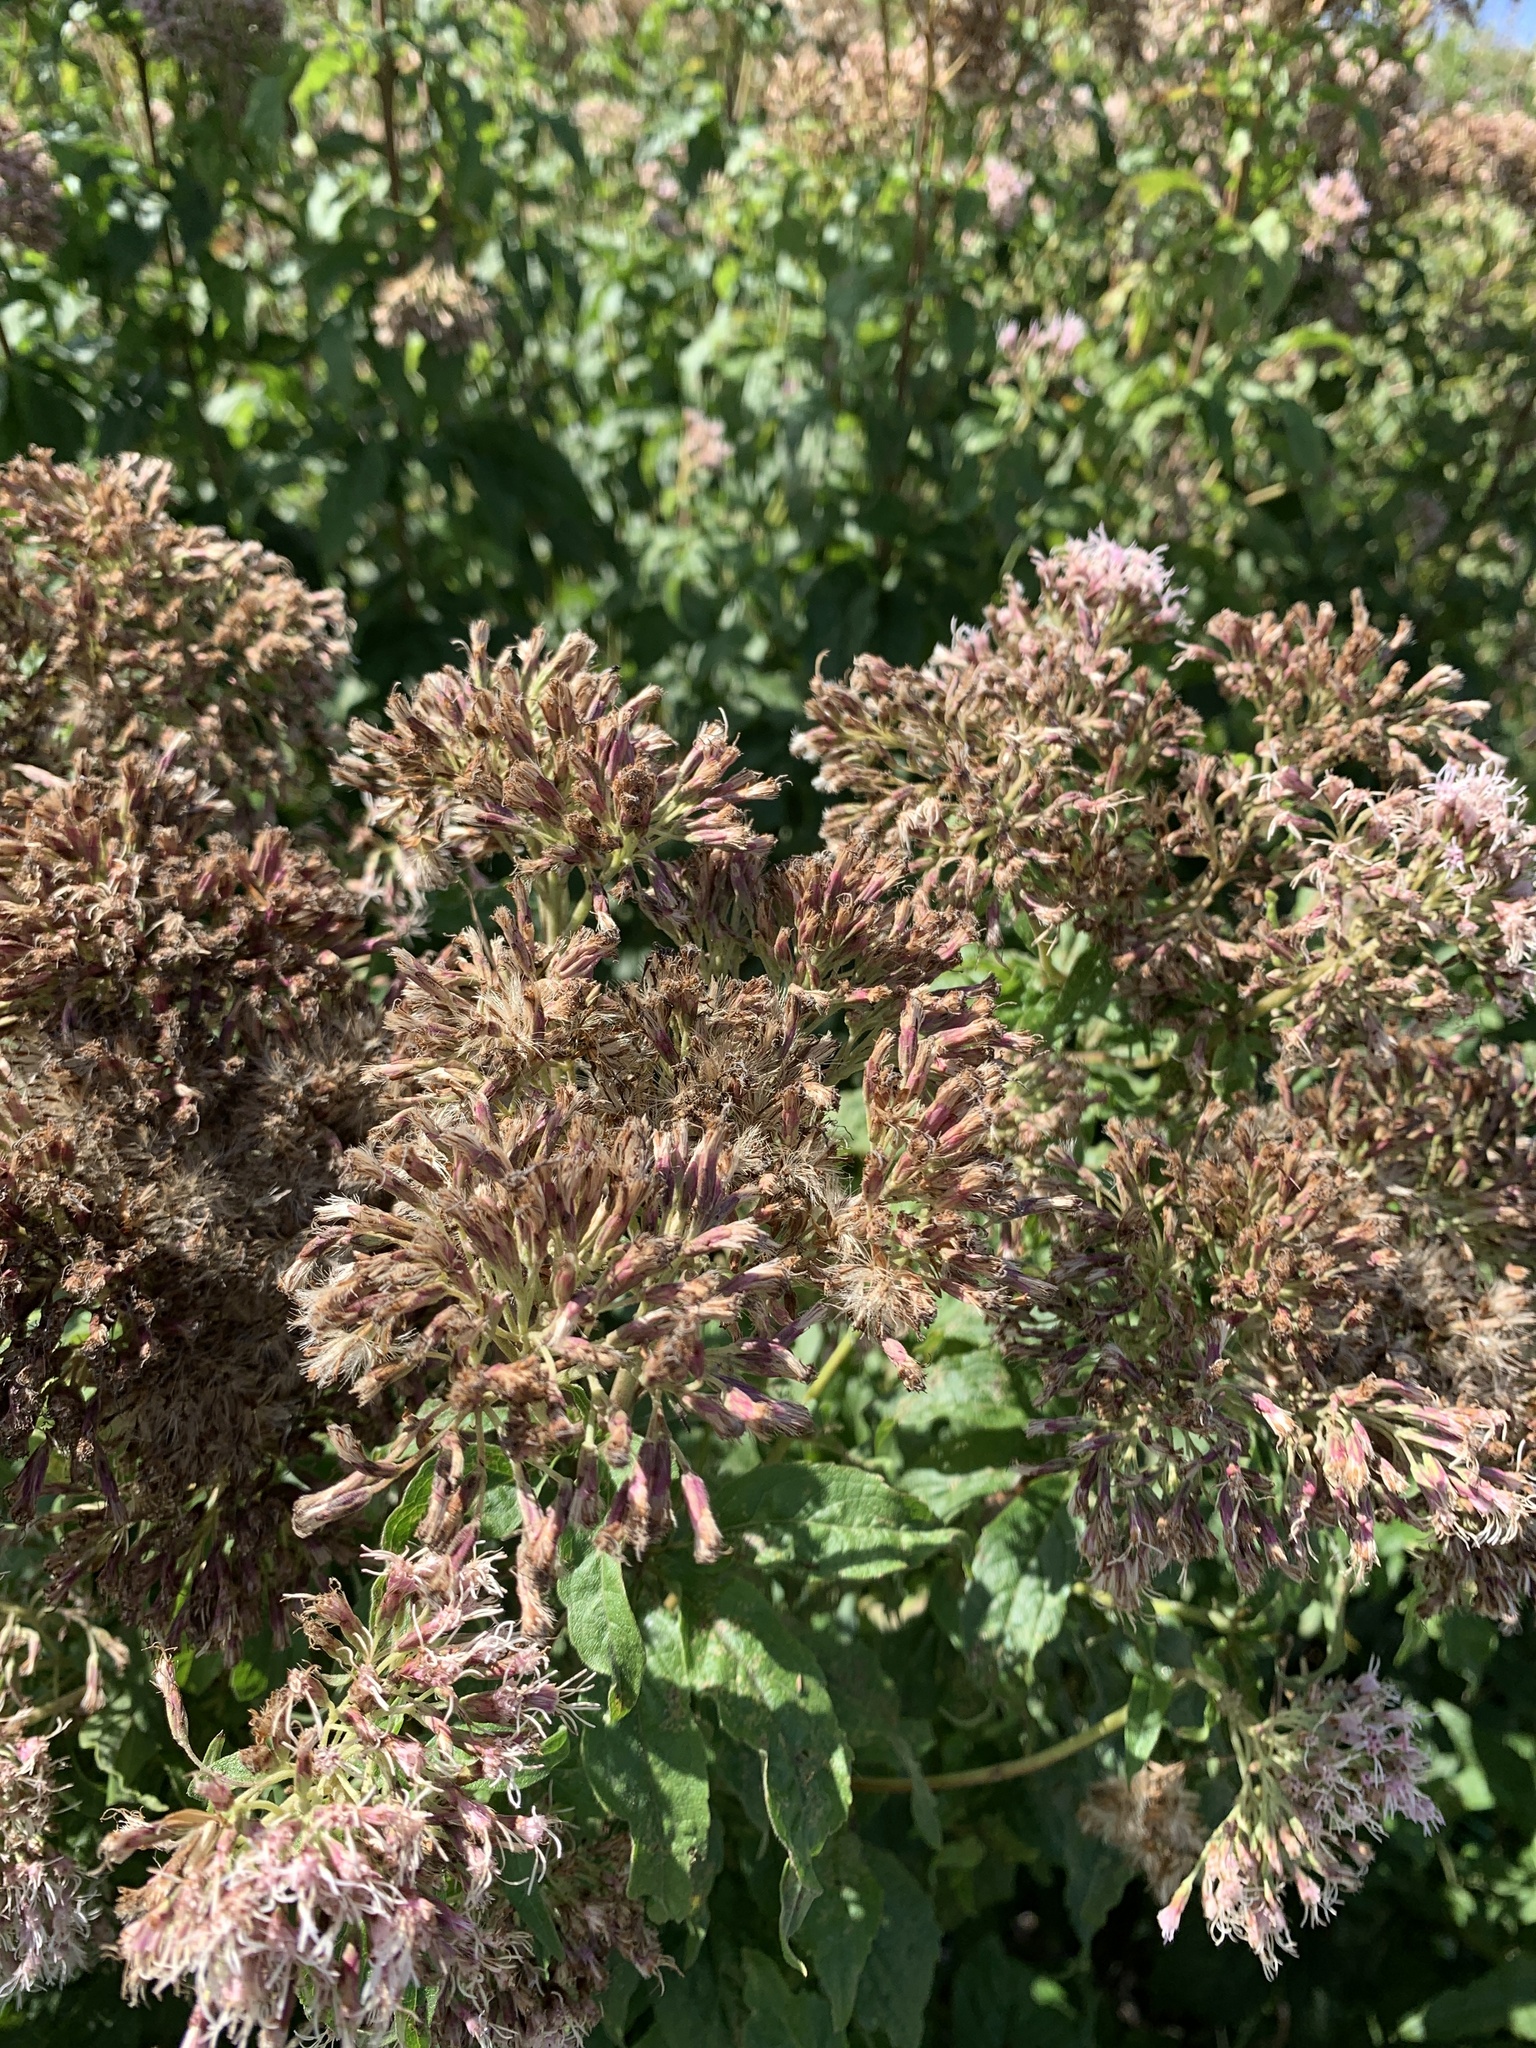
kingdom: Plantae
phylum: Tracheophyta
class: Magnoliopsida
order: Asterales
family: Asteraceae
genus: Eupatorium
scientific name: Eupatorium cannabinum
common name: Hemp-agrimony
